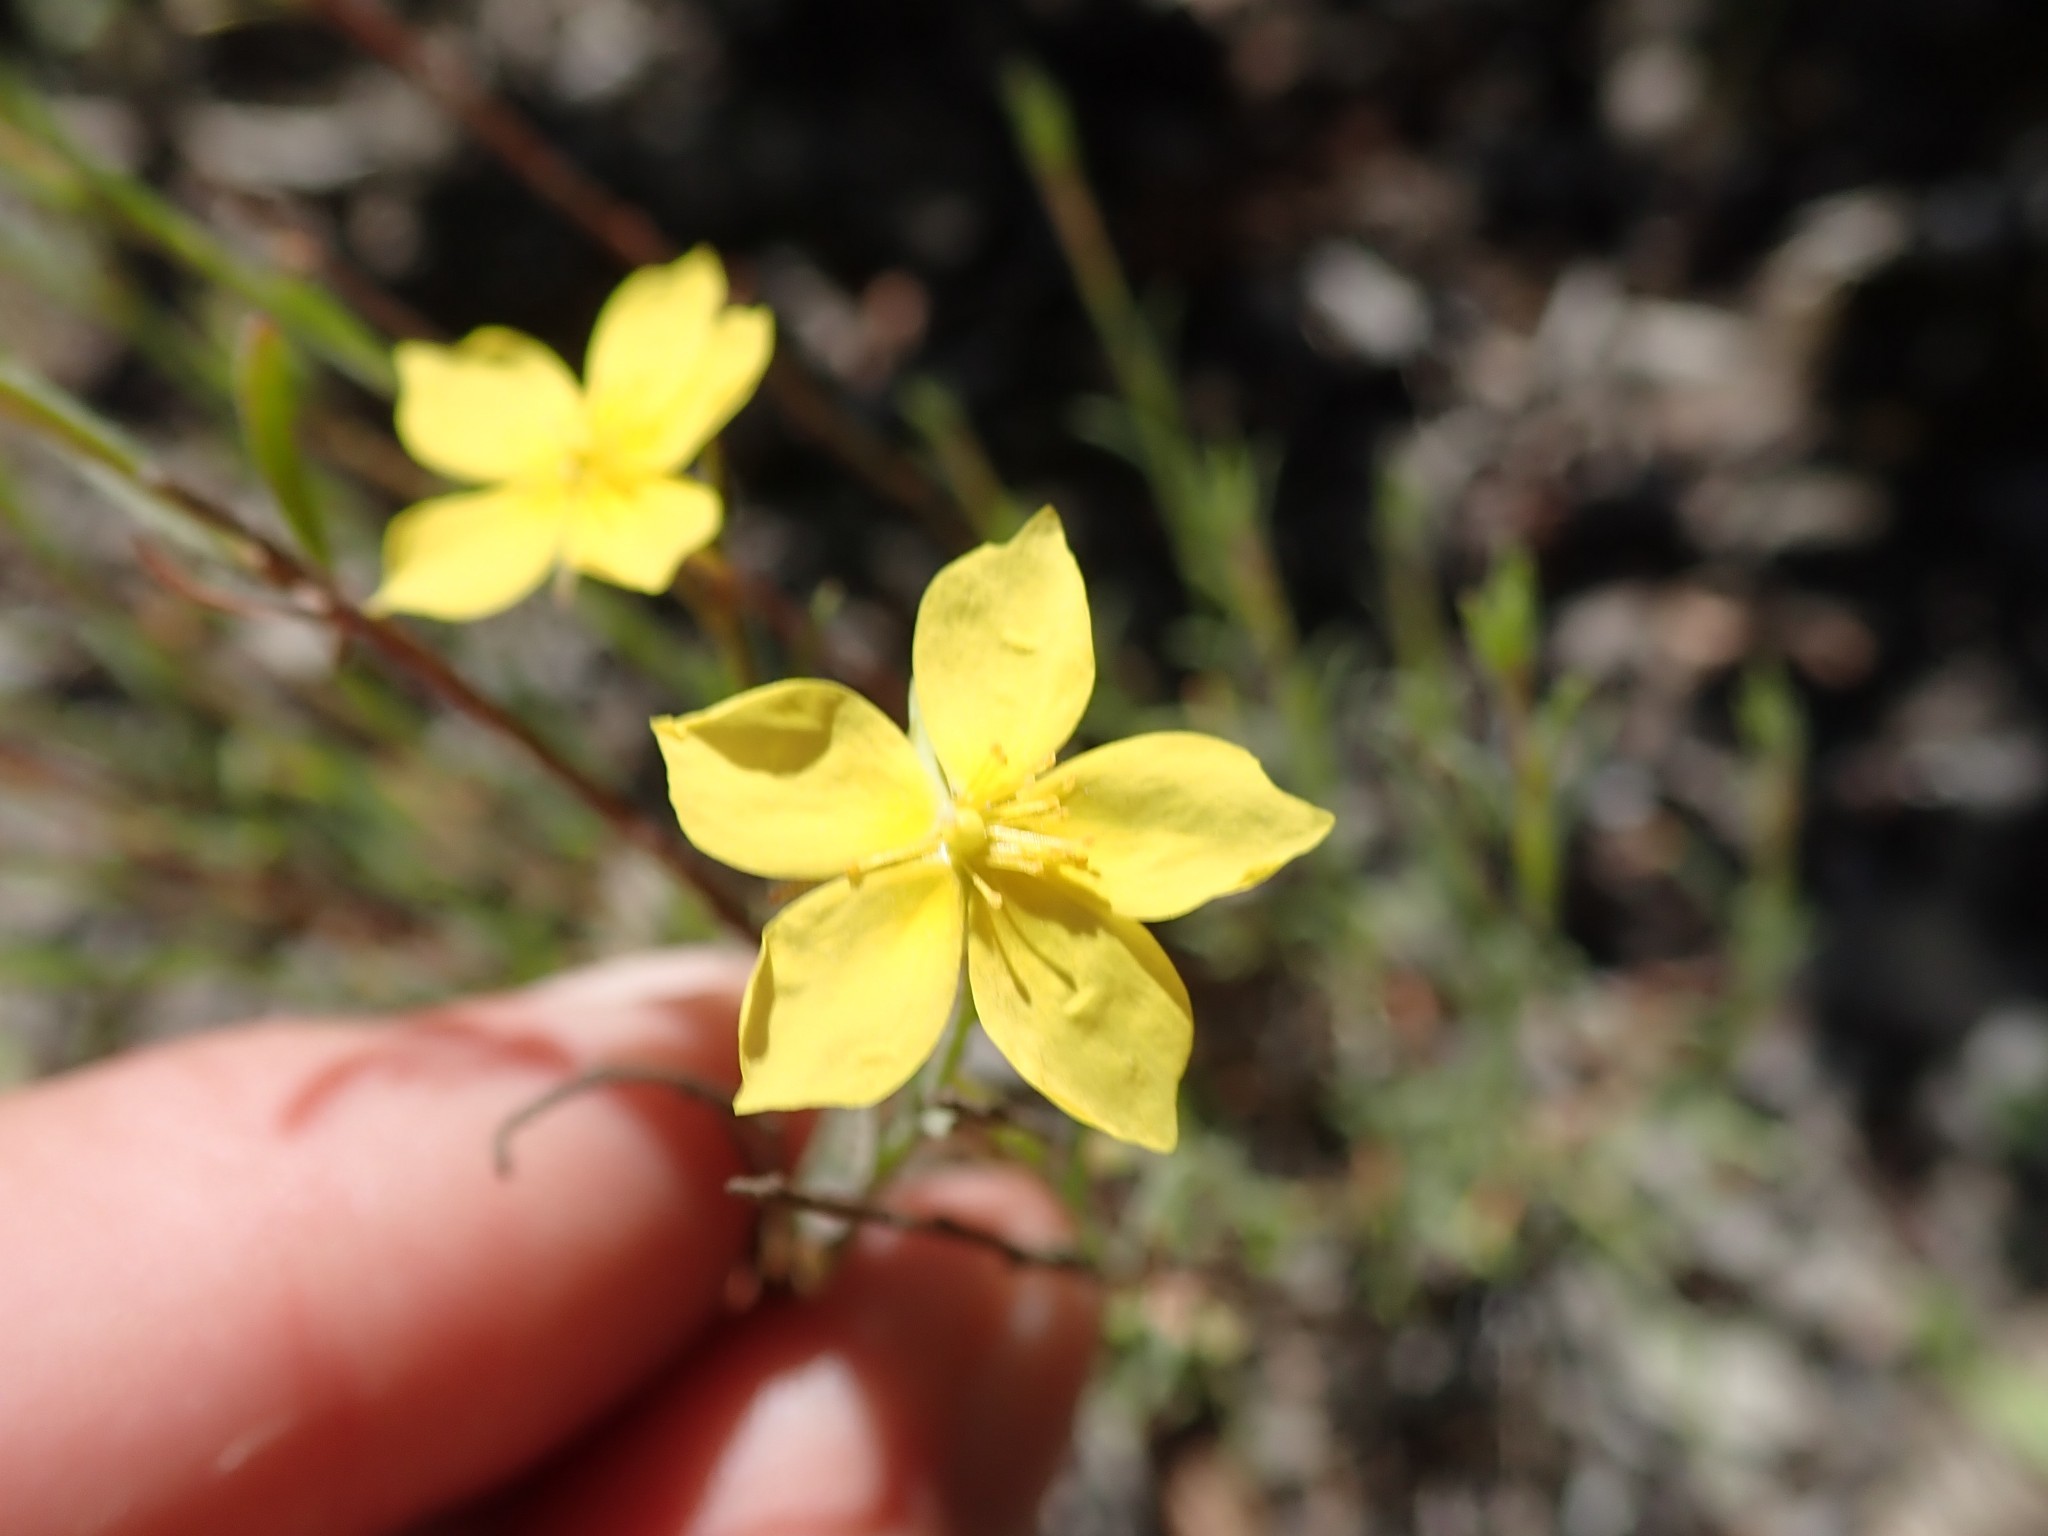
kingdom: Plantae
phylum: Tracheophyta
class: Magnoliopsida
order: Malvales
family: Cistaceae
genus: Crocanthemum
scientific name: Crocanthemum scoparium
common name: Broom-rose
